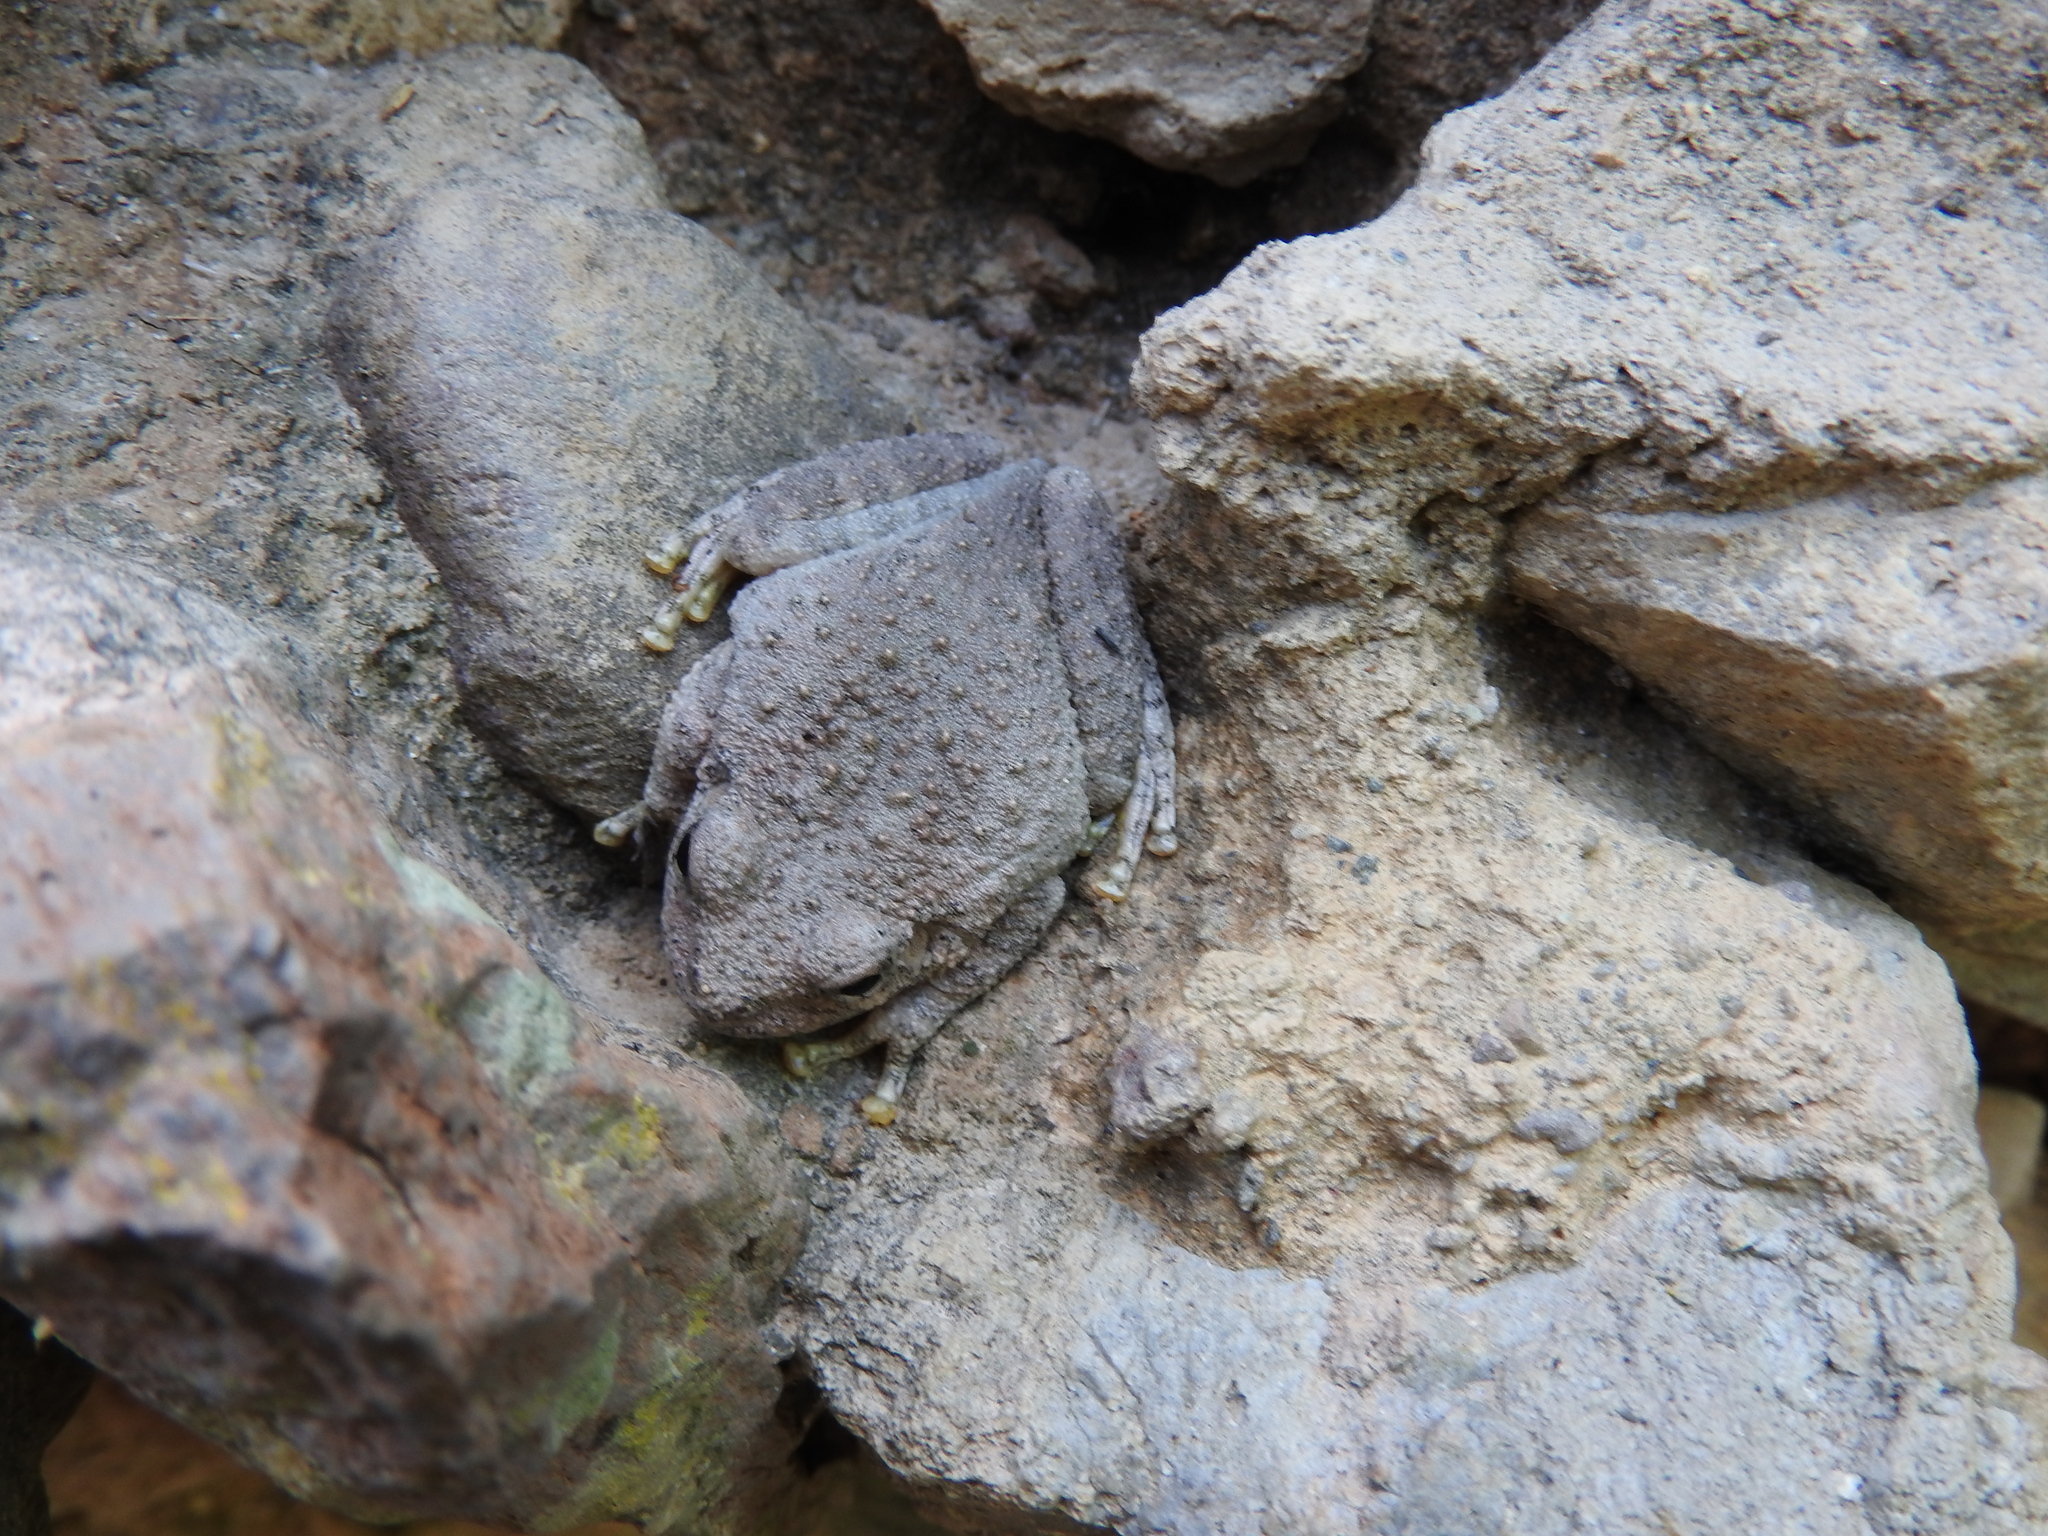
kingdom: Animalia
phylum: Chordata
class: Amphibia
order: Anura
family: Hylidae
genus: Dryophytes
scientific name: Dryophytes arenicolor
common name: Canyon treefrog
